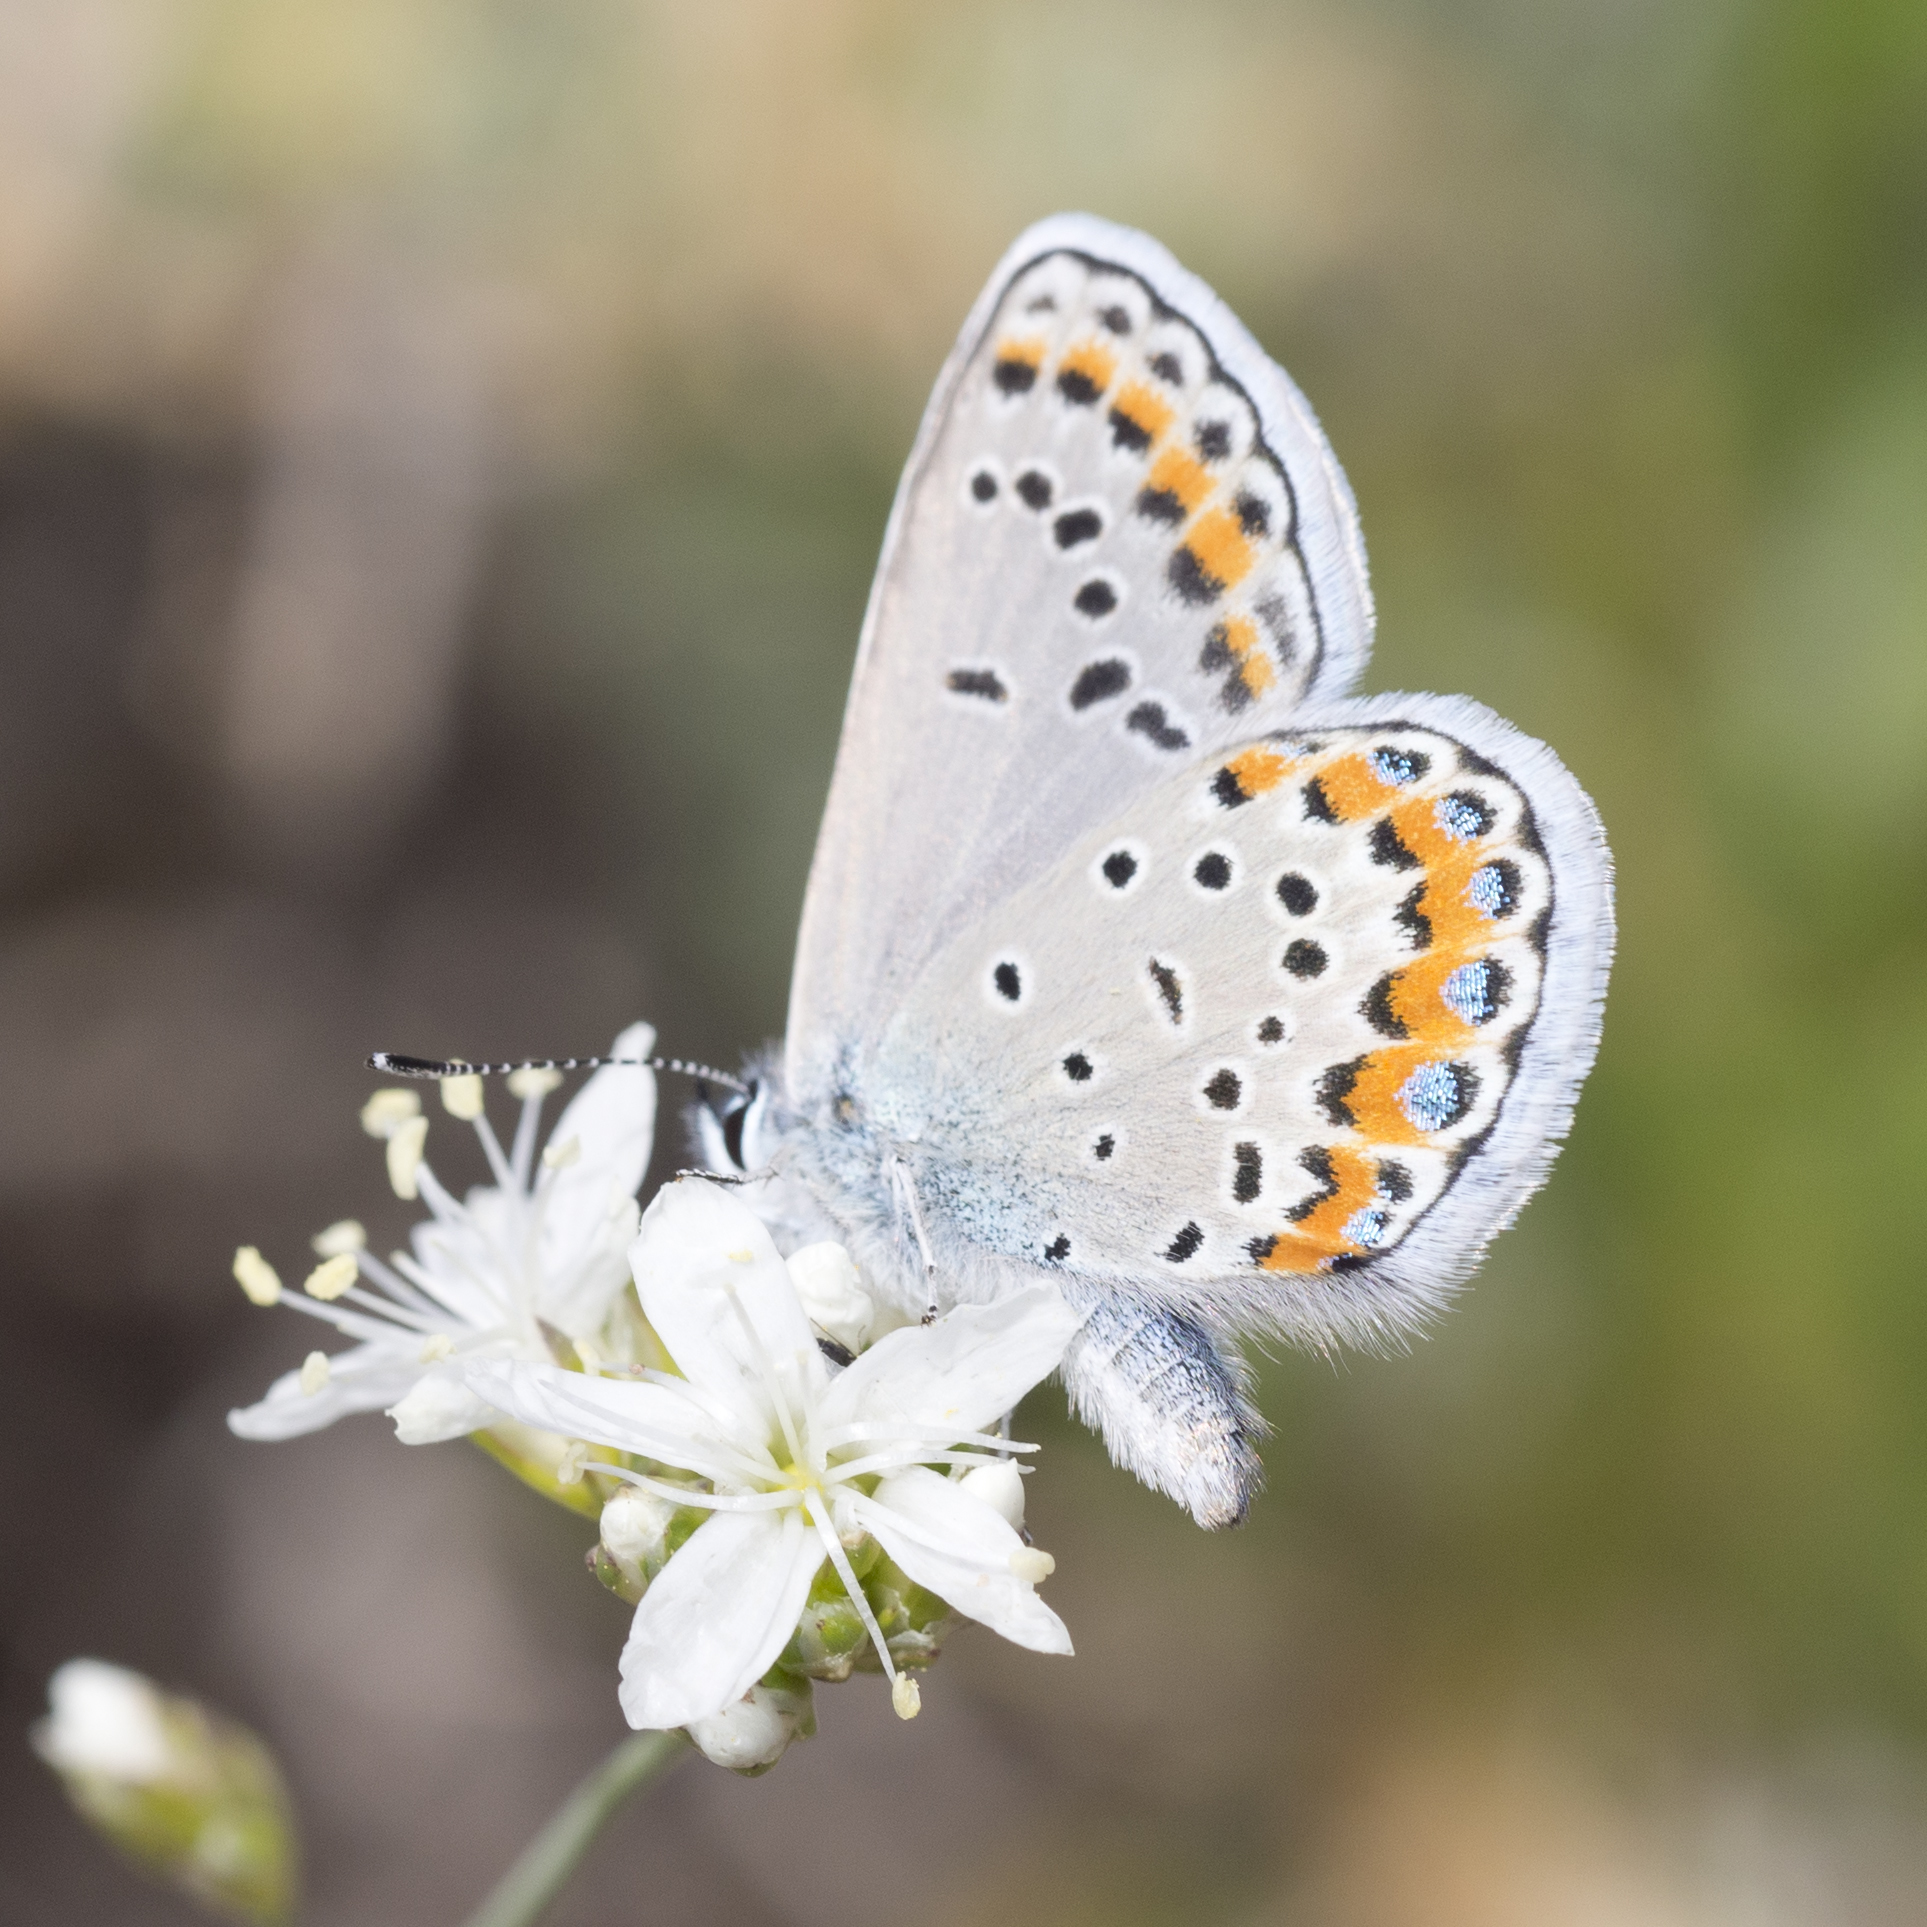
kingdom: Animalia
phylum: Arthropoda
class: Insecta
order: Lepidoptera
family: Lycaenidae
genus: Lycaeides
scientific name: Lycaeides melissa
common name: Melissa blue
